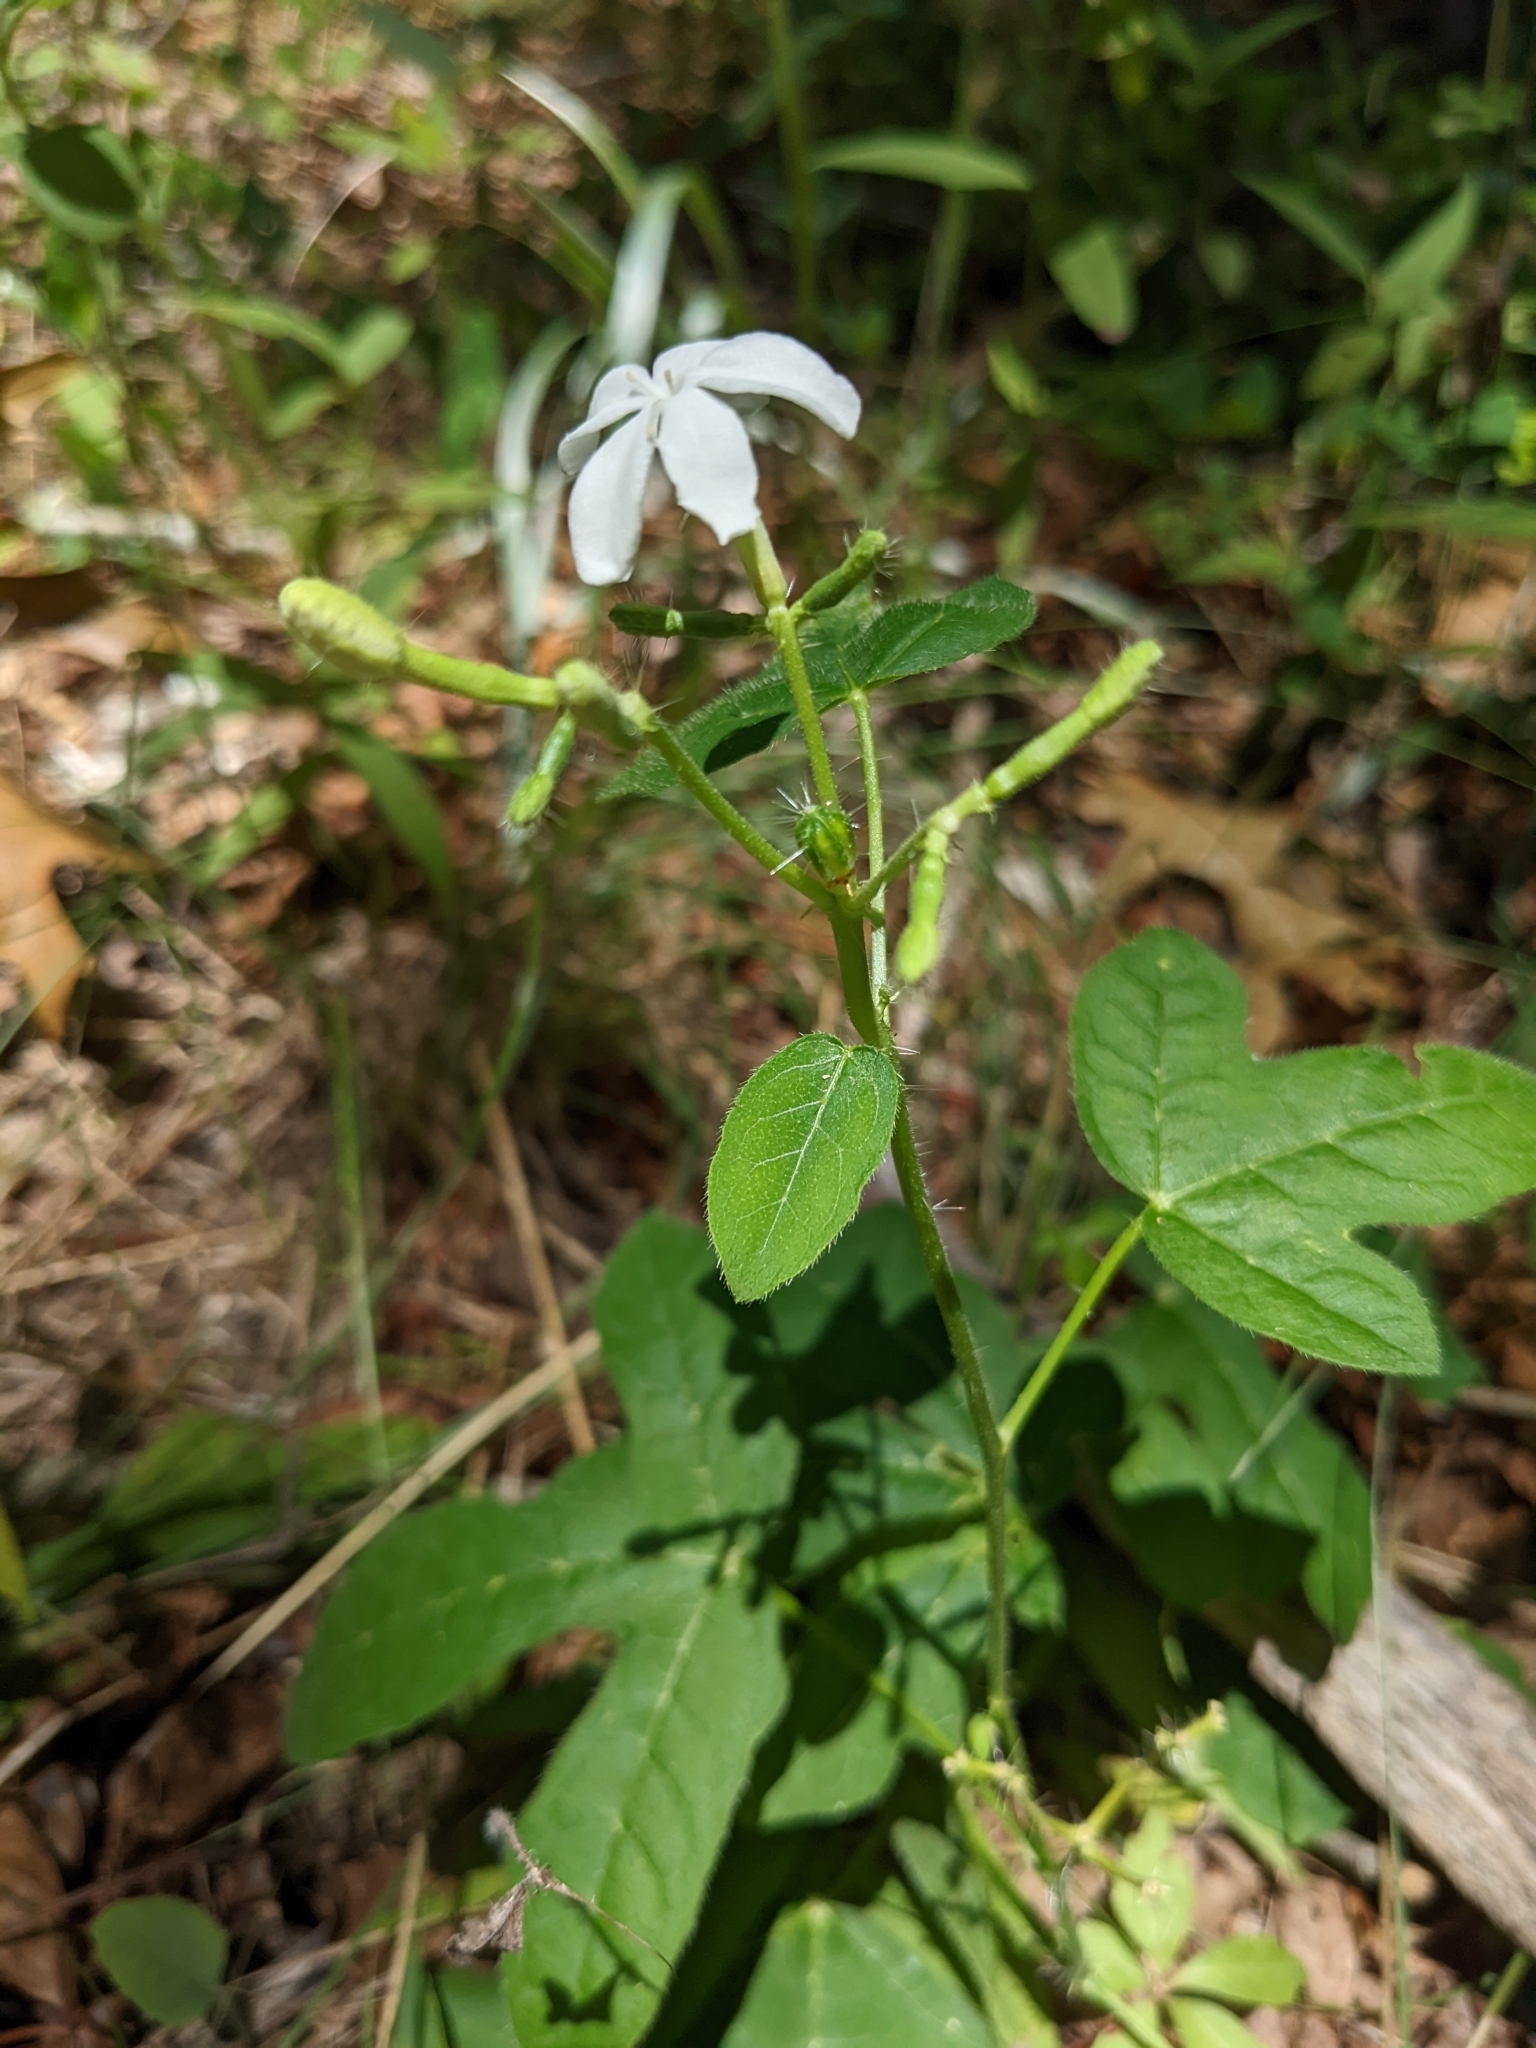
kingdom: Plantae
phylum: Tracheophyta
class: Magnoliopsida
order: Malpighiales
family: Euphorbiaceae
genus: Cnidoscolus
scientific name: Cnidoscolus stimulosus
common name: Bull-nettle
